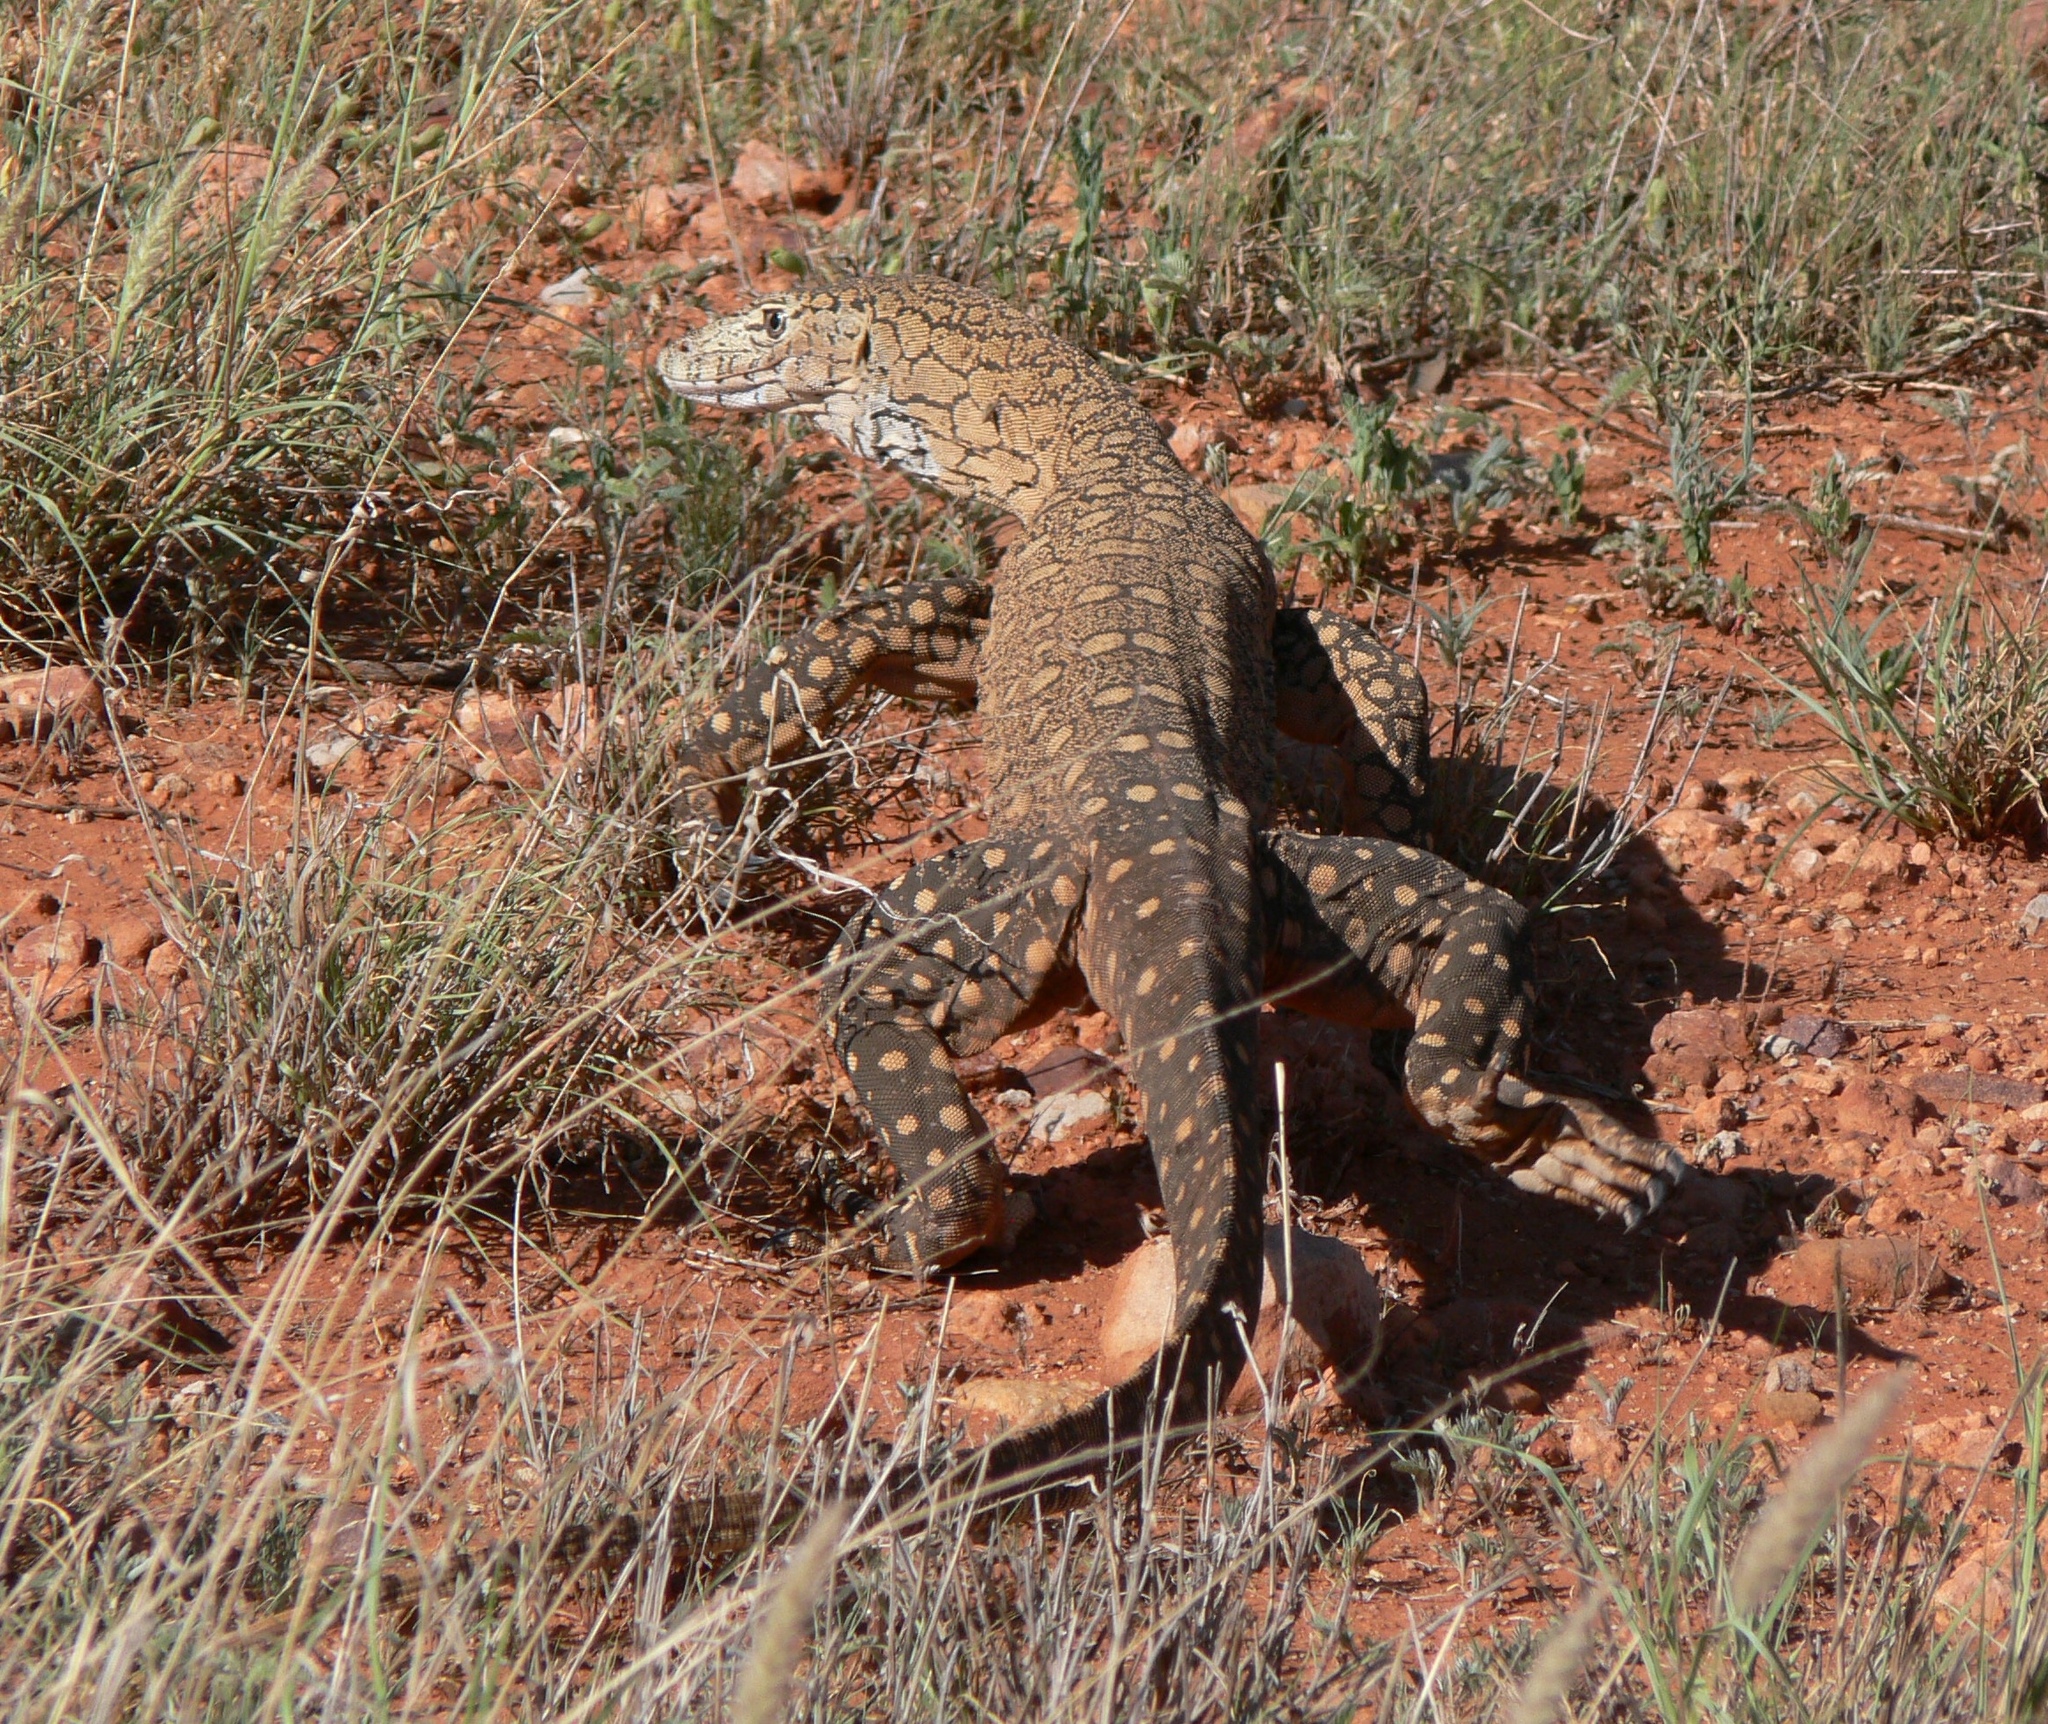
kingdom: Animalia
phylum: Chordata
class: Squamata
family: Varanidae
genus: Varanus
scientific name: Varanus giganteus
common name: Perentie
